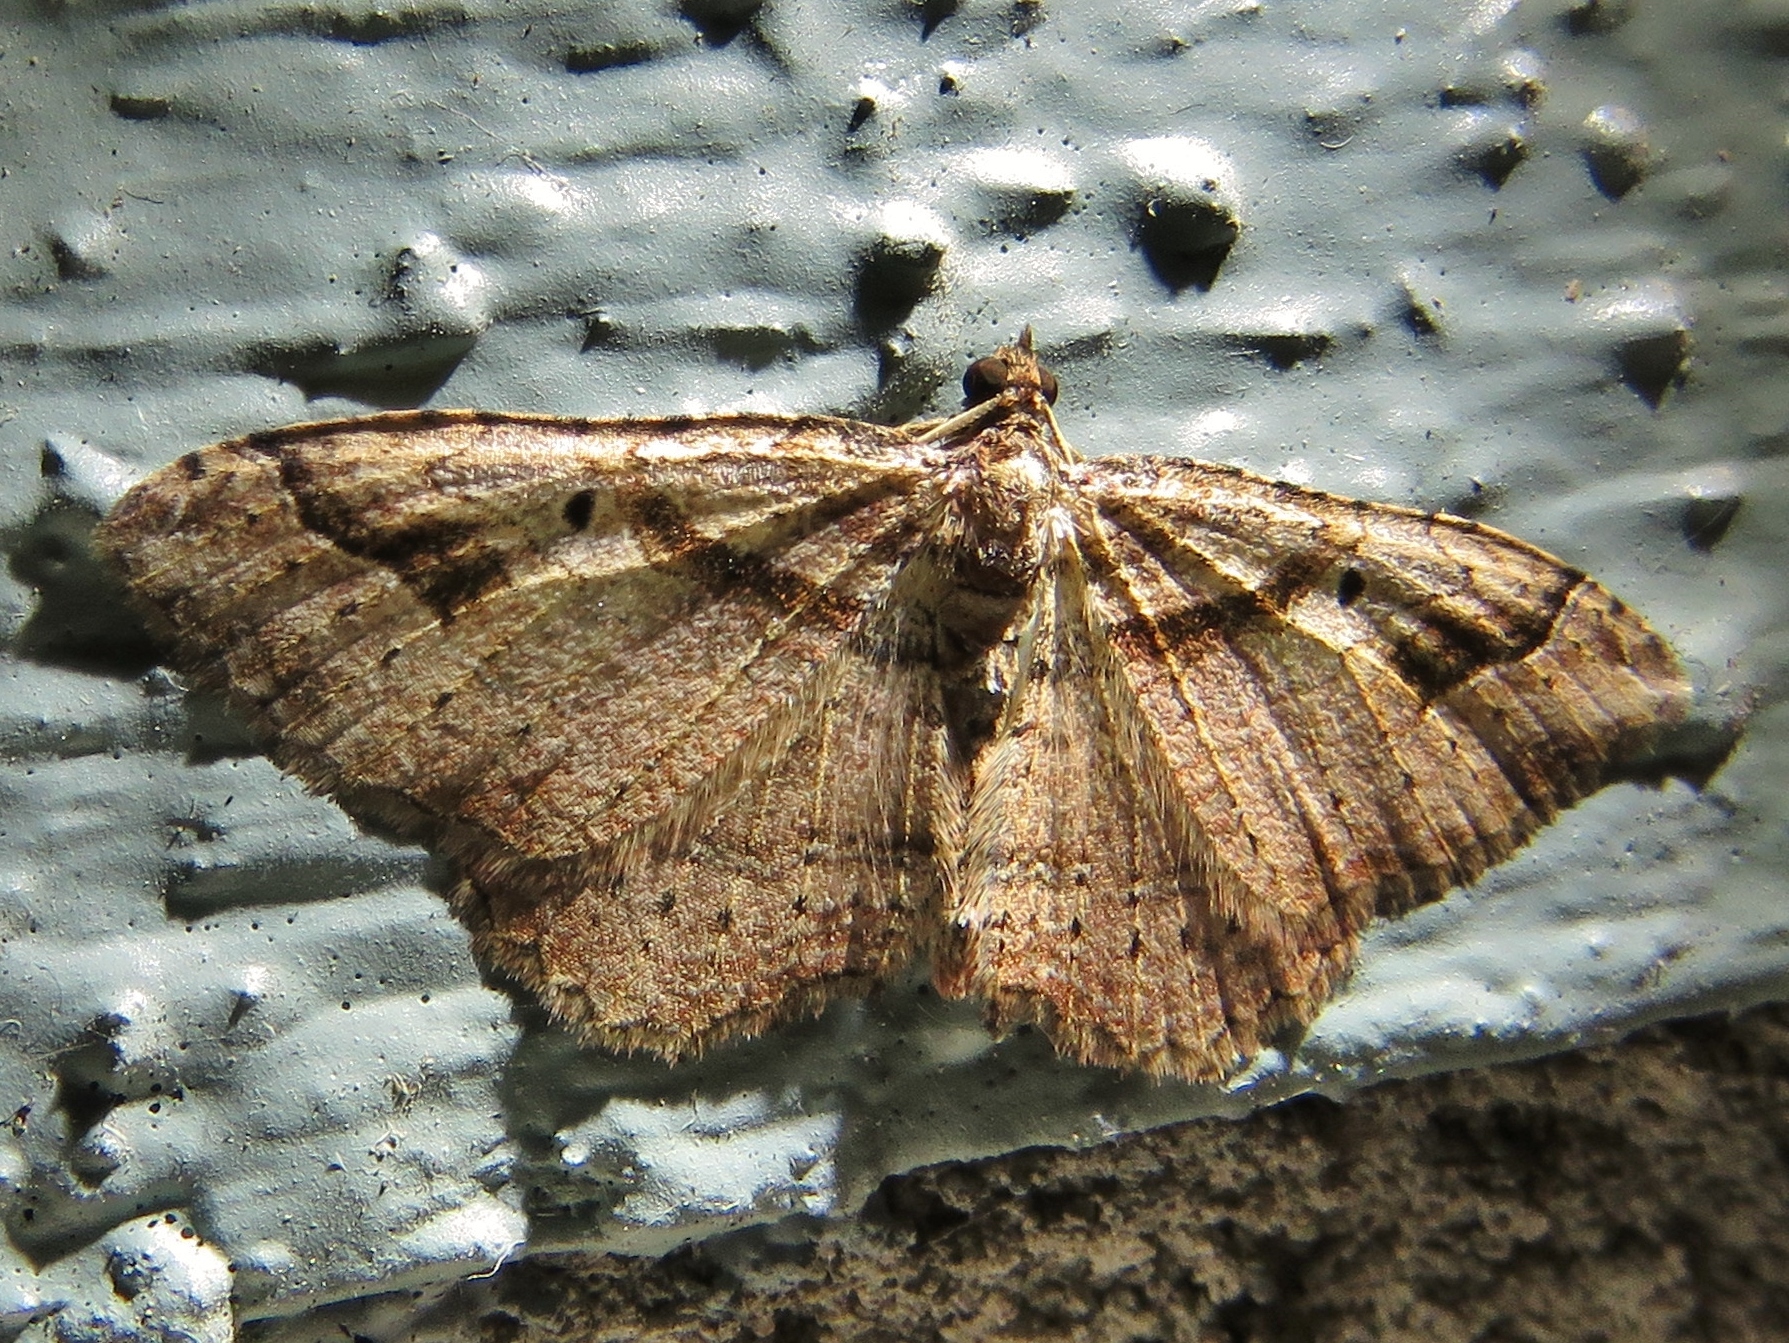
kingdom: Animalia
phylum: Arthropoda
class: Insecta
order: Lepidoptera
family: Geometridae
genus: Costaconvexa
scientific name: Costaconvexa centrostrigaria
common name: Bent-line carpet
